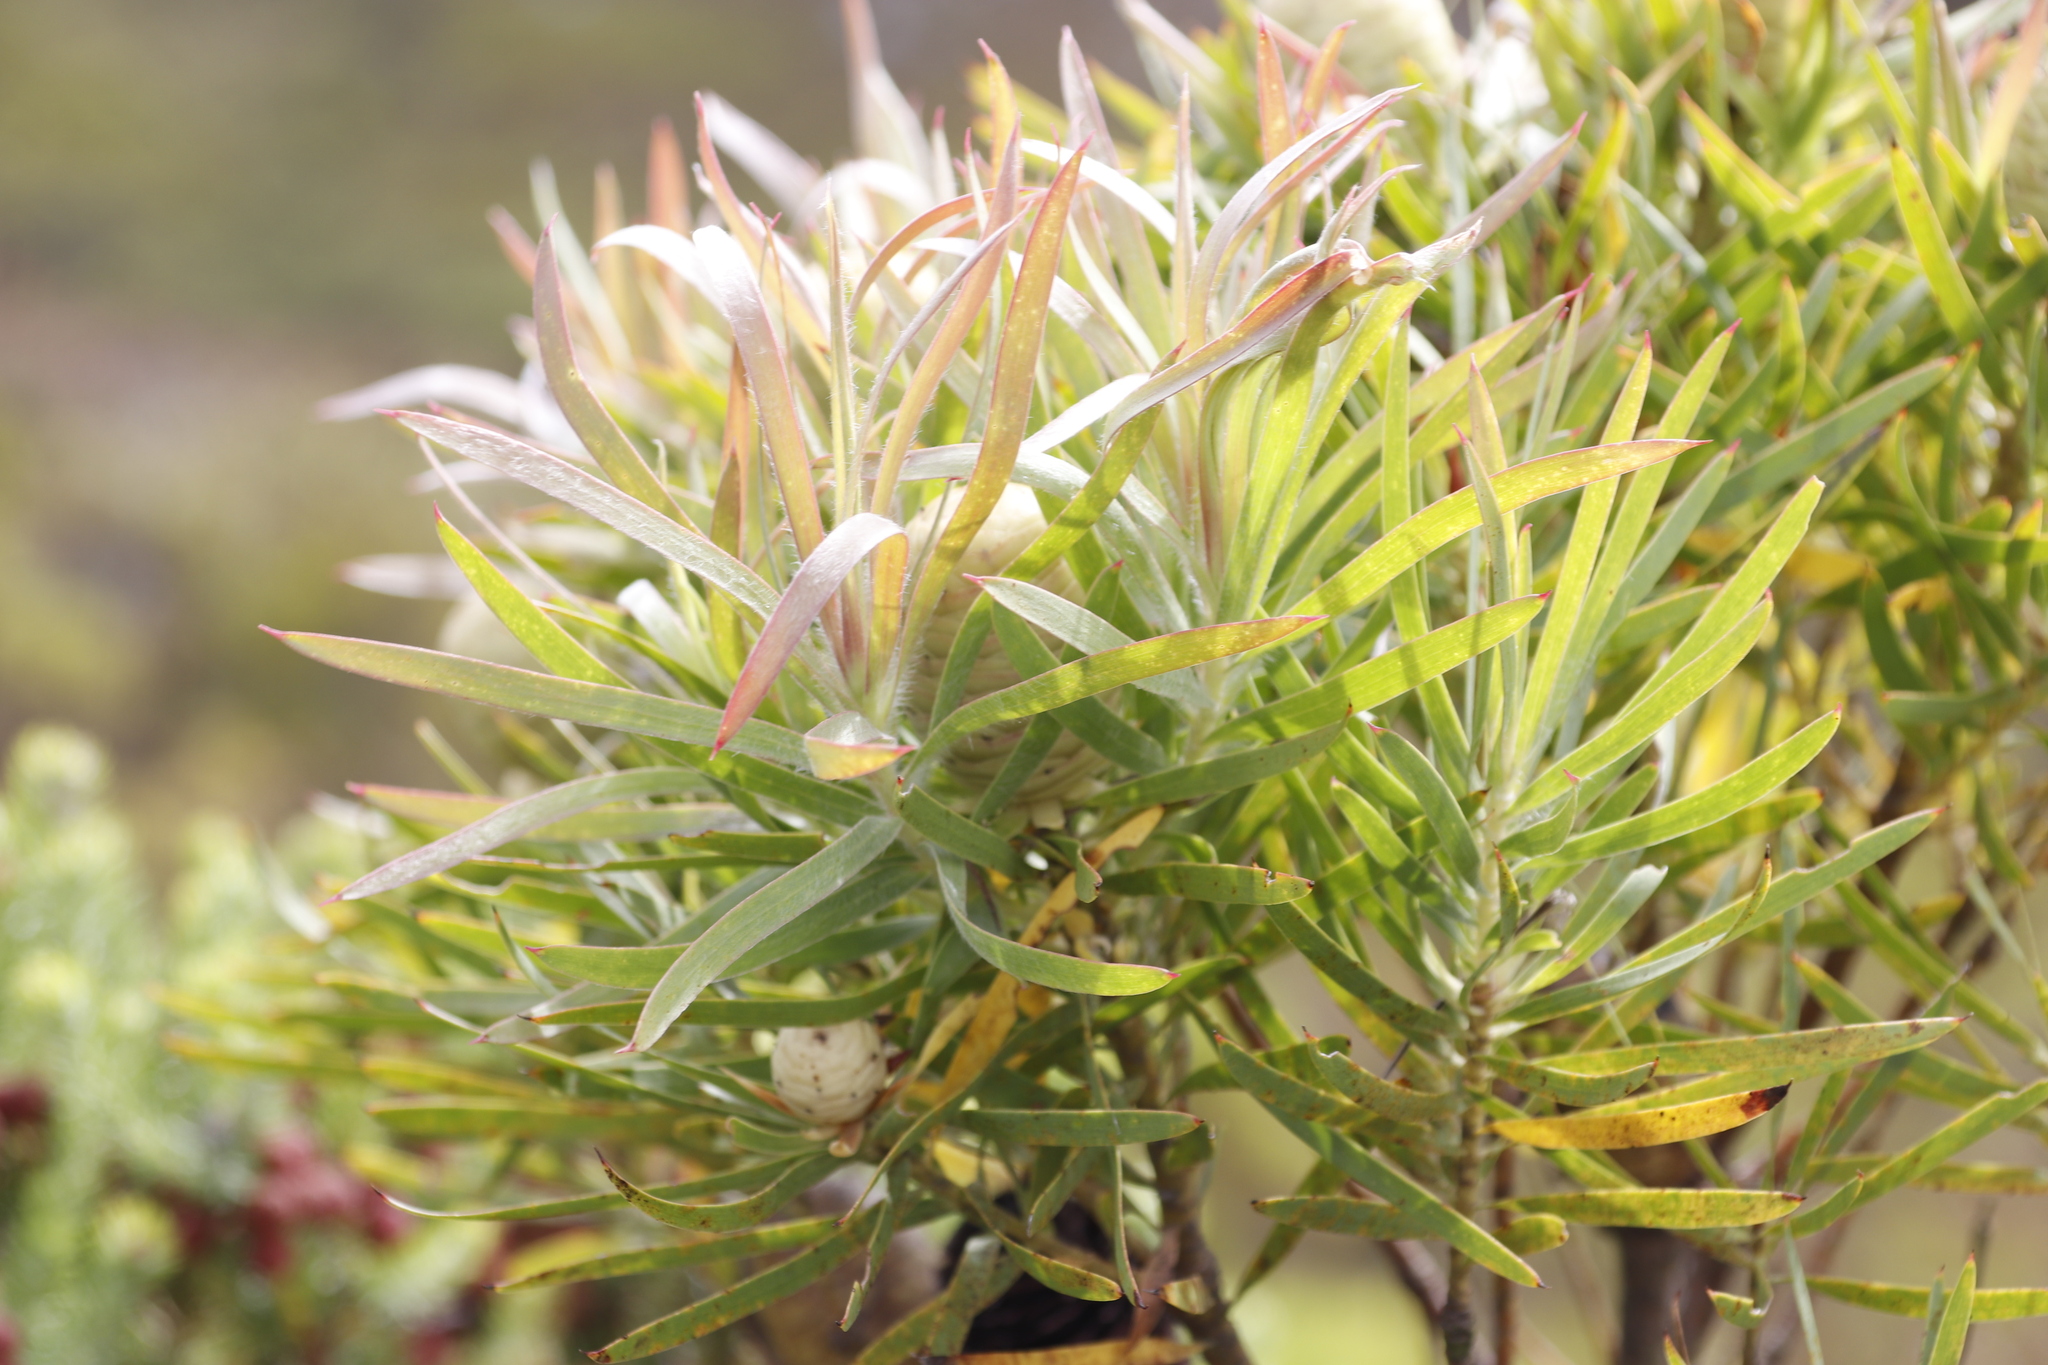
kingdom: Plantae
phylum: Tracheophyta
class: Magnoliopsida
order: Proteales
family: Proteaceae
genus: Leucadendron
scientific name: Leucadendron salicifolium
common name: Common stream conebush
